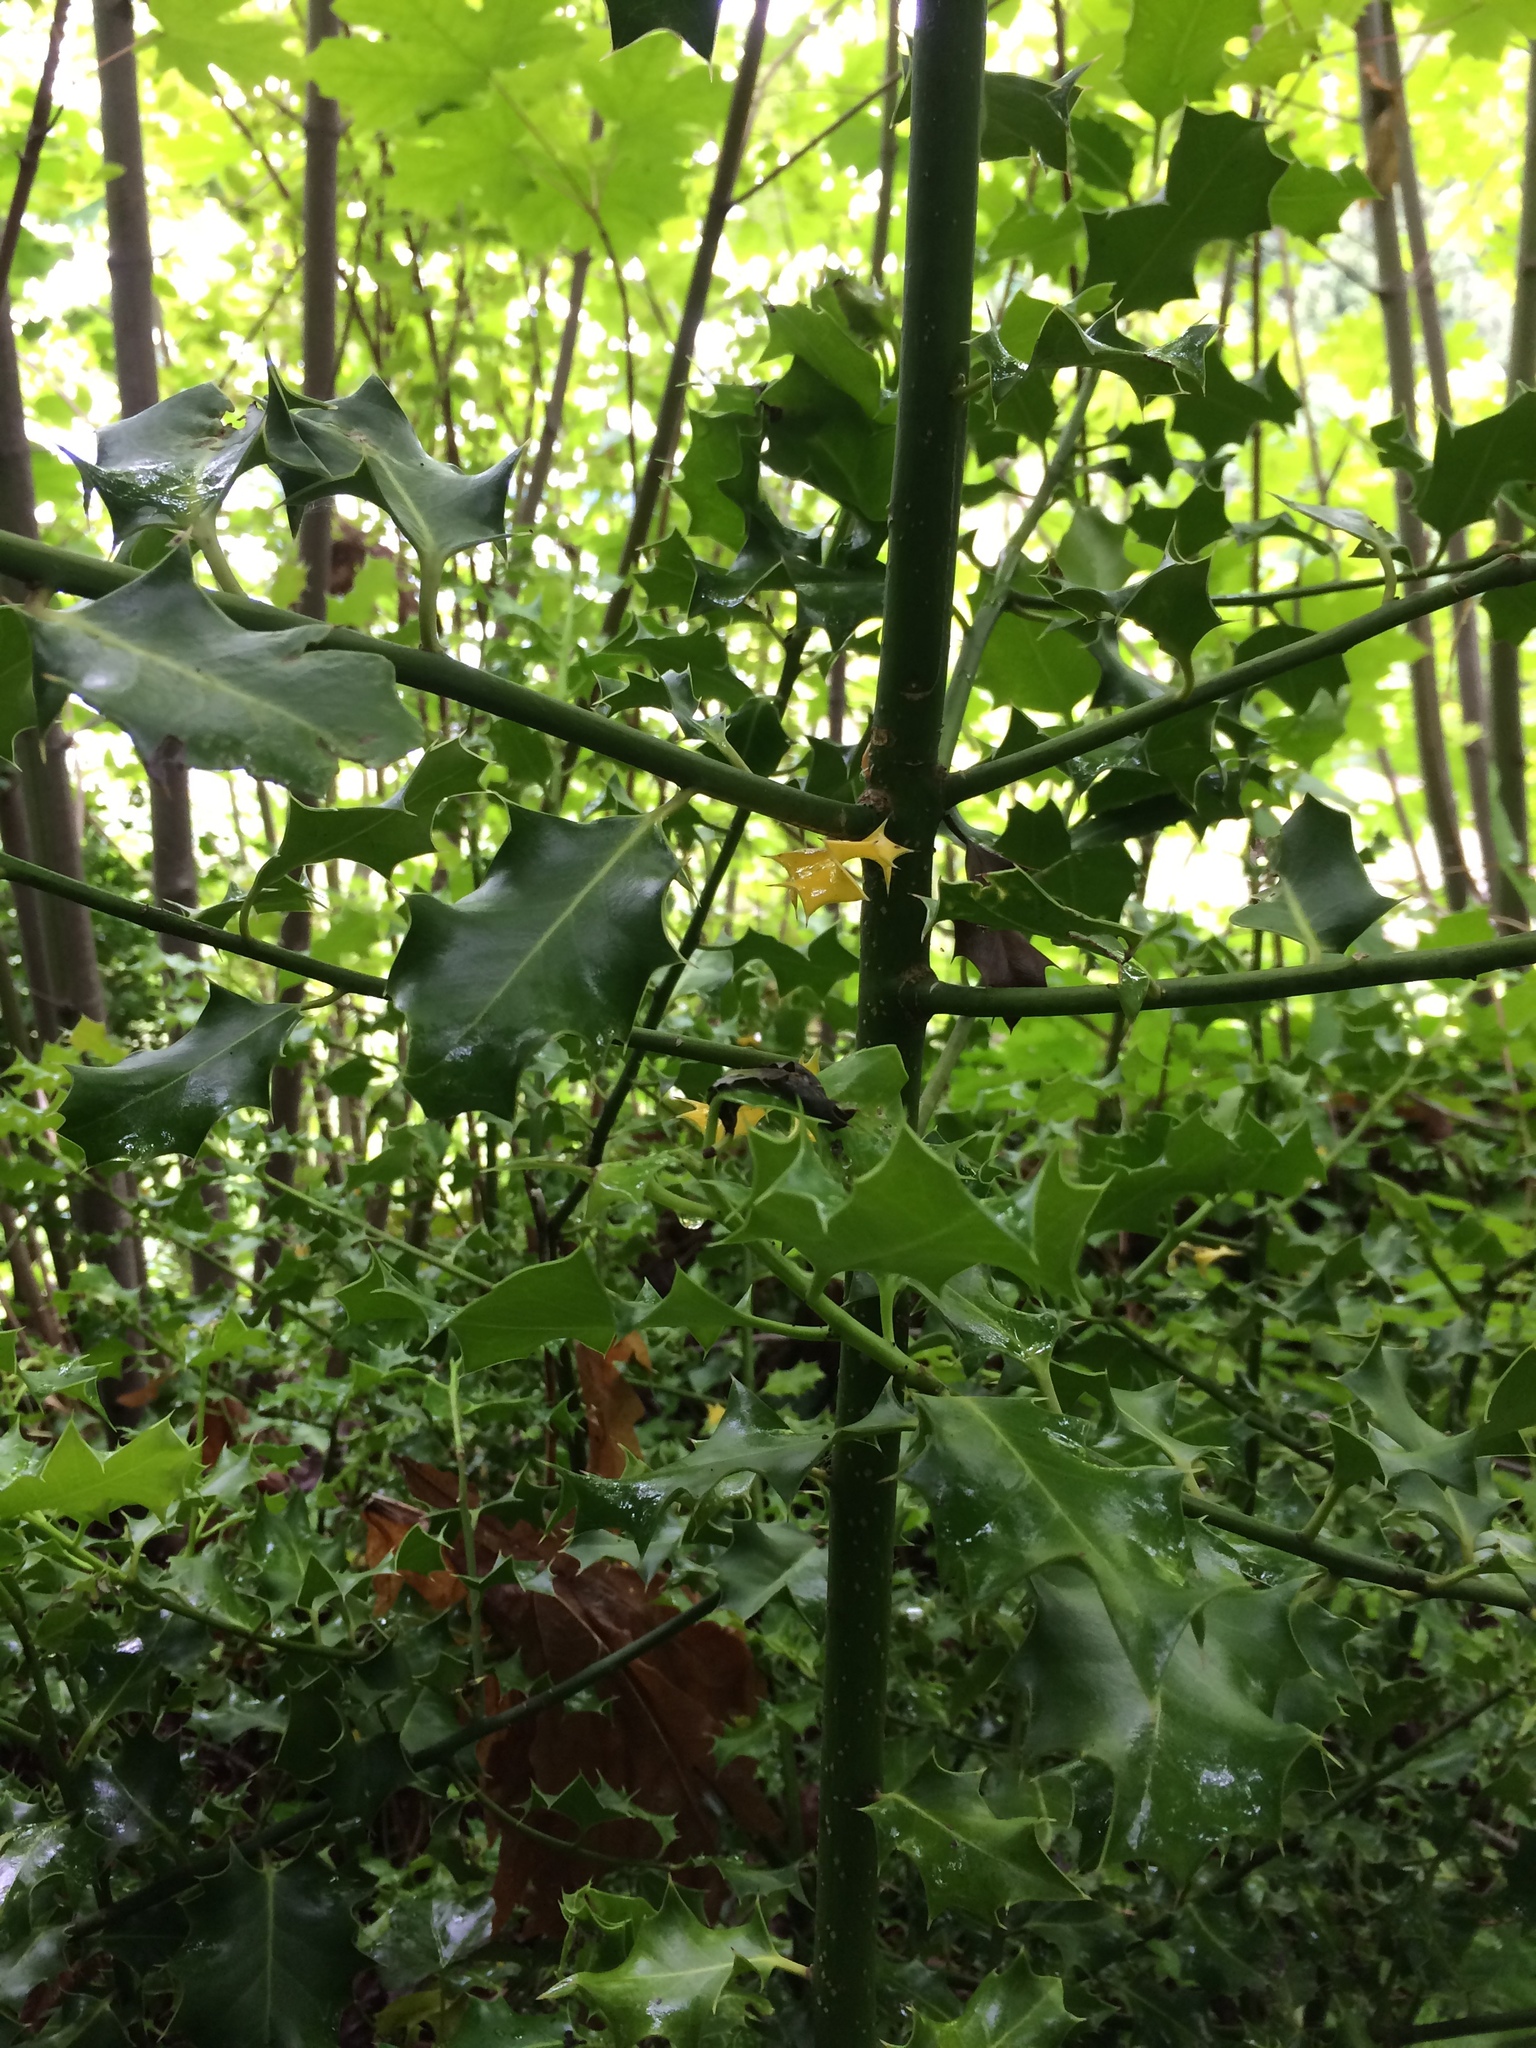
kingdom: Plantae
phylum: Tracheophyta
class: Magnoliopsida
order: Aquifoliales
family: Aquifoliaceae
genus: Ilex
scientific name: Ilex aquifolium
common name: English holly
